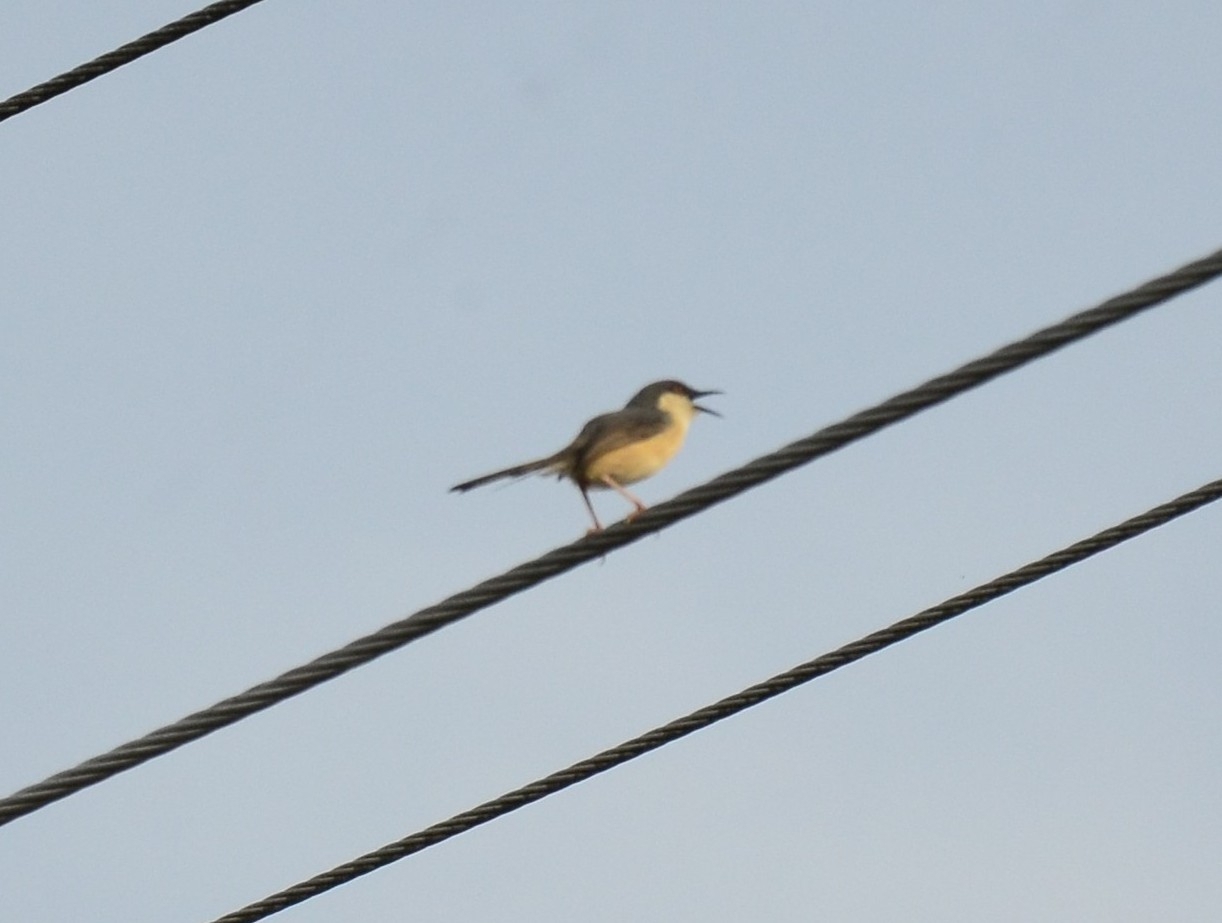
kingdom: Animalia
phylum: Chordata
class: Aves
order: Passeriformes
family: Cisticolidae
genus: Prinia
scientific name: Prinia socialis
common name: Ashy prinia
